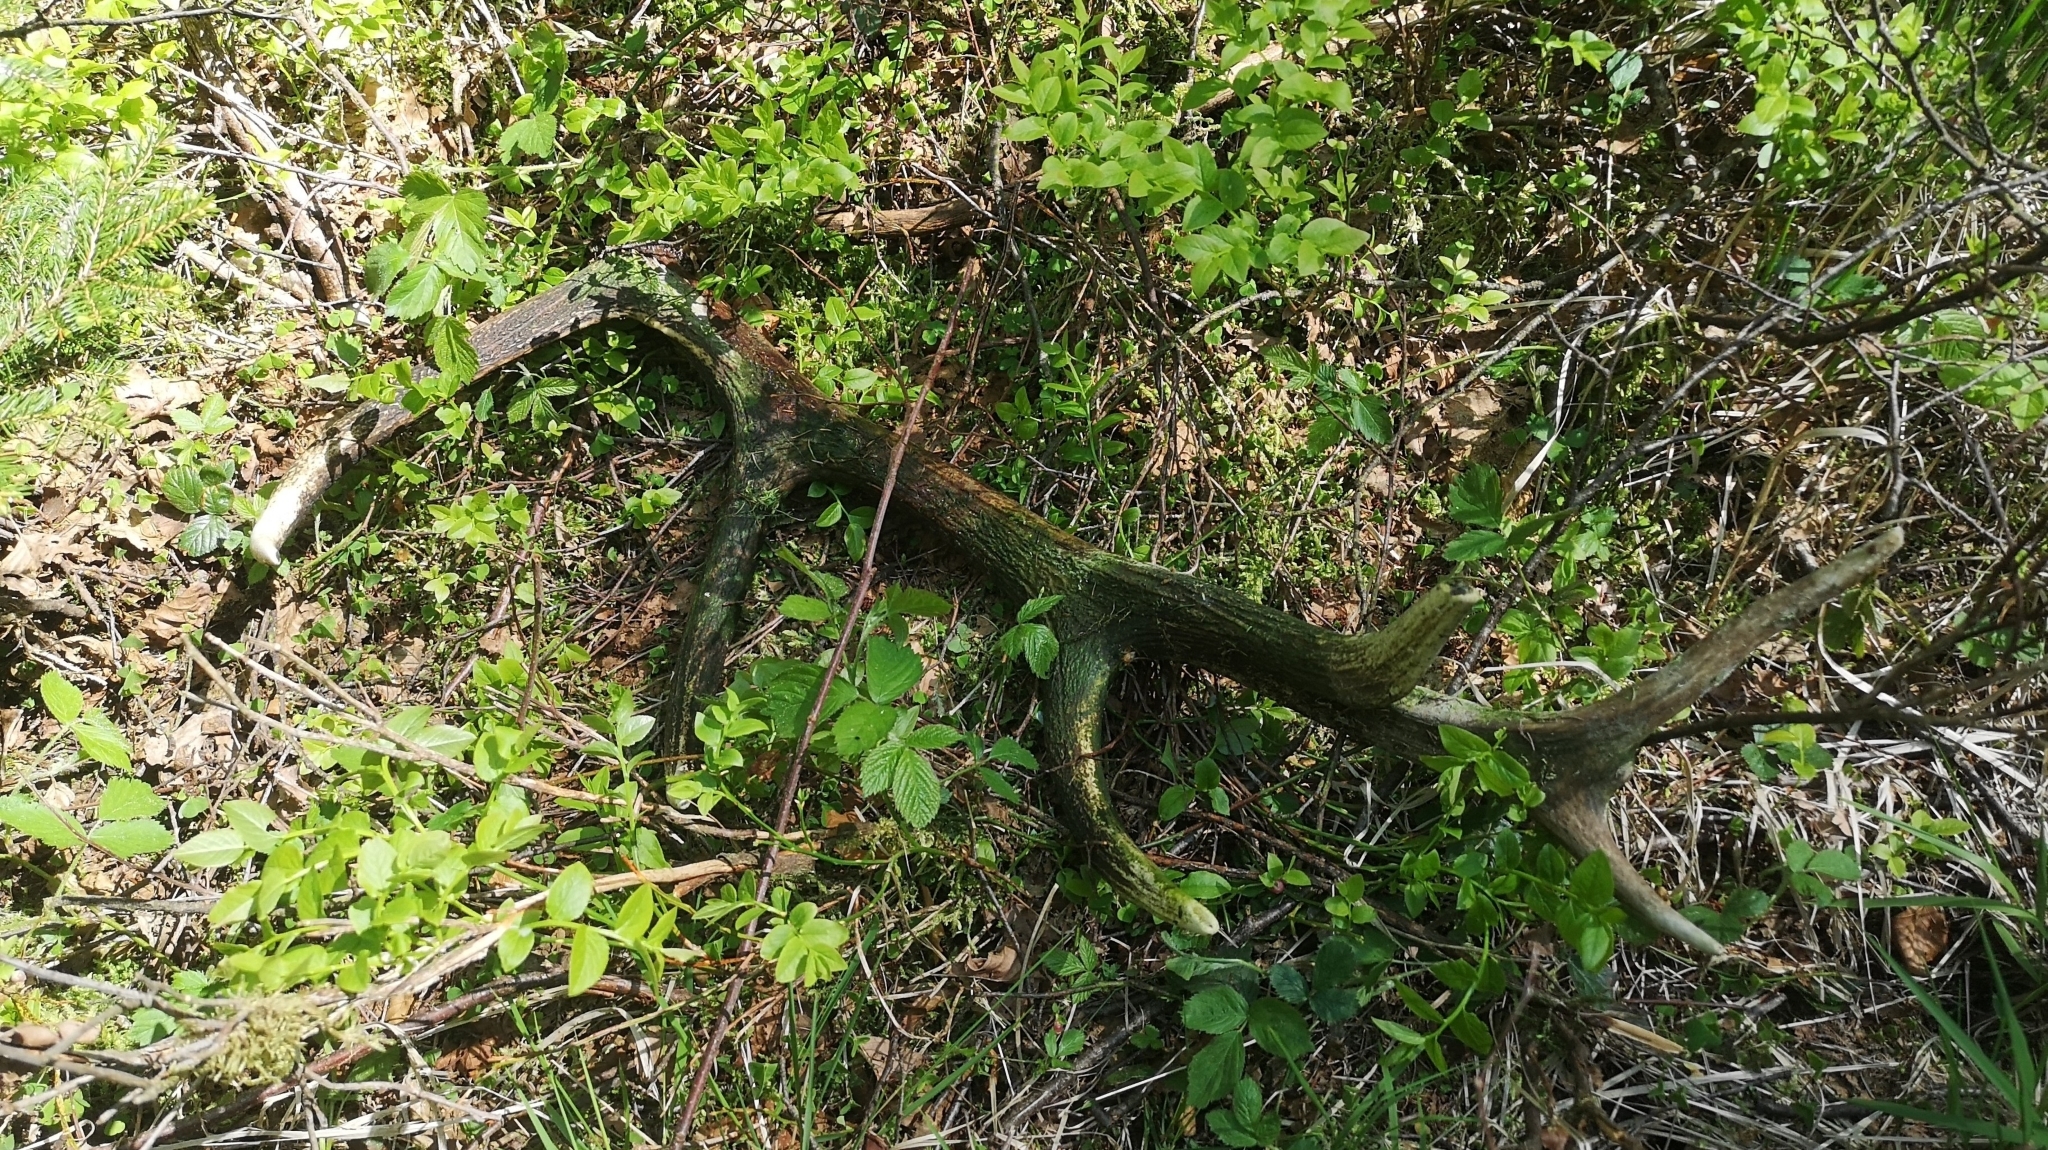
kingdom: Animalia
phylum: Chordata
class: Mammalia
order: Artiodactyla
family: Cervidae
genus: Cervus
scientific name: Cervus elaphus
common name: Red deer
